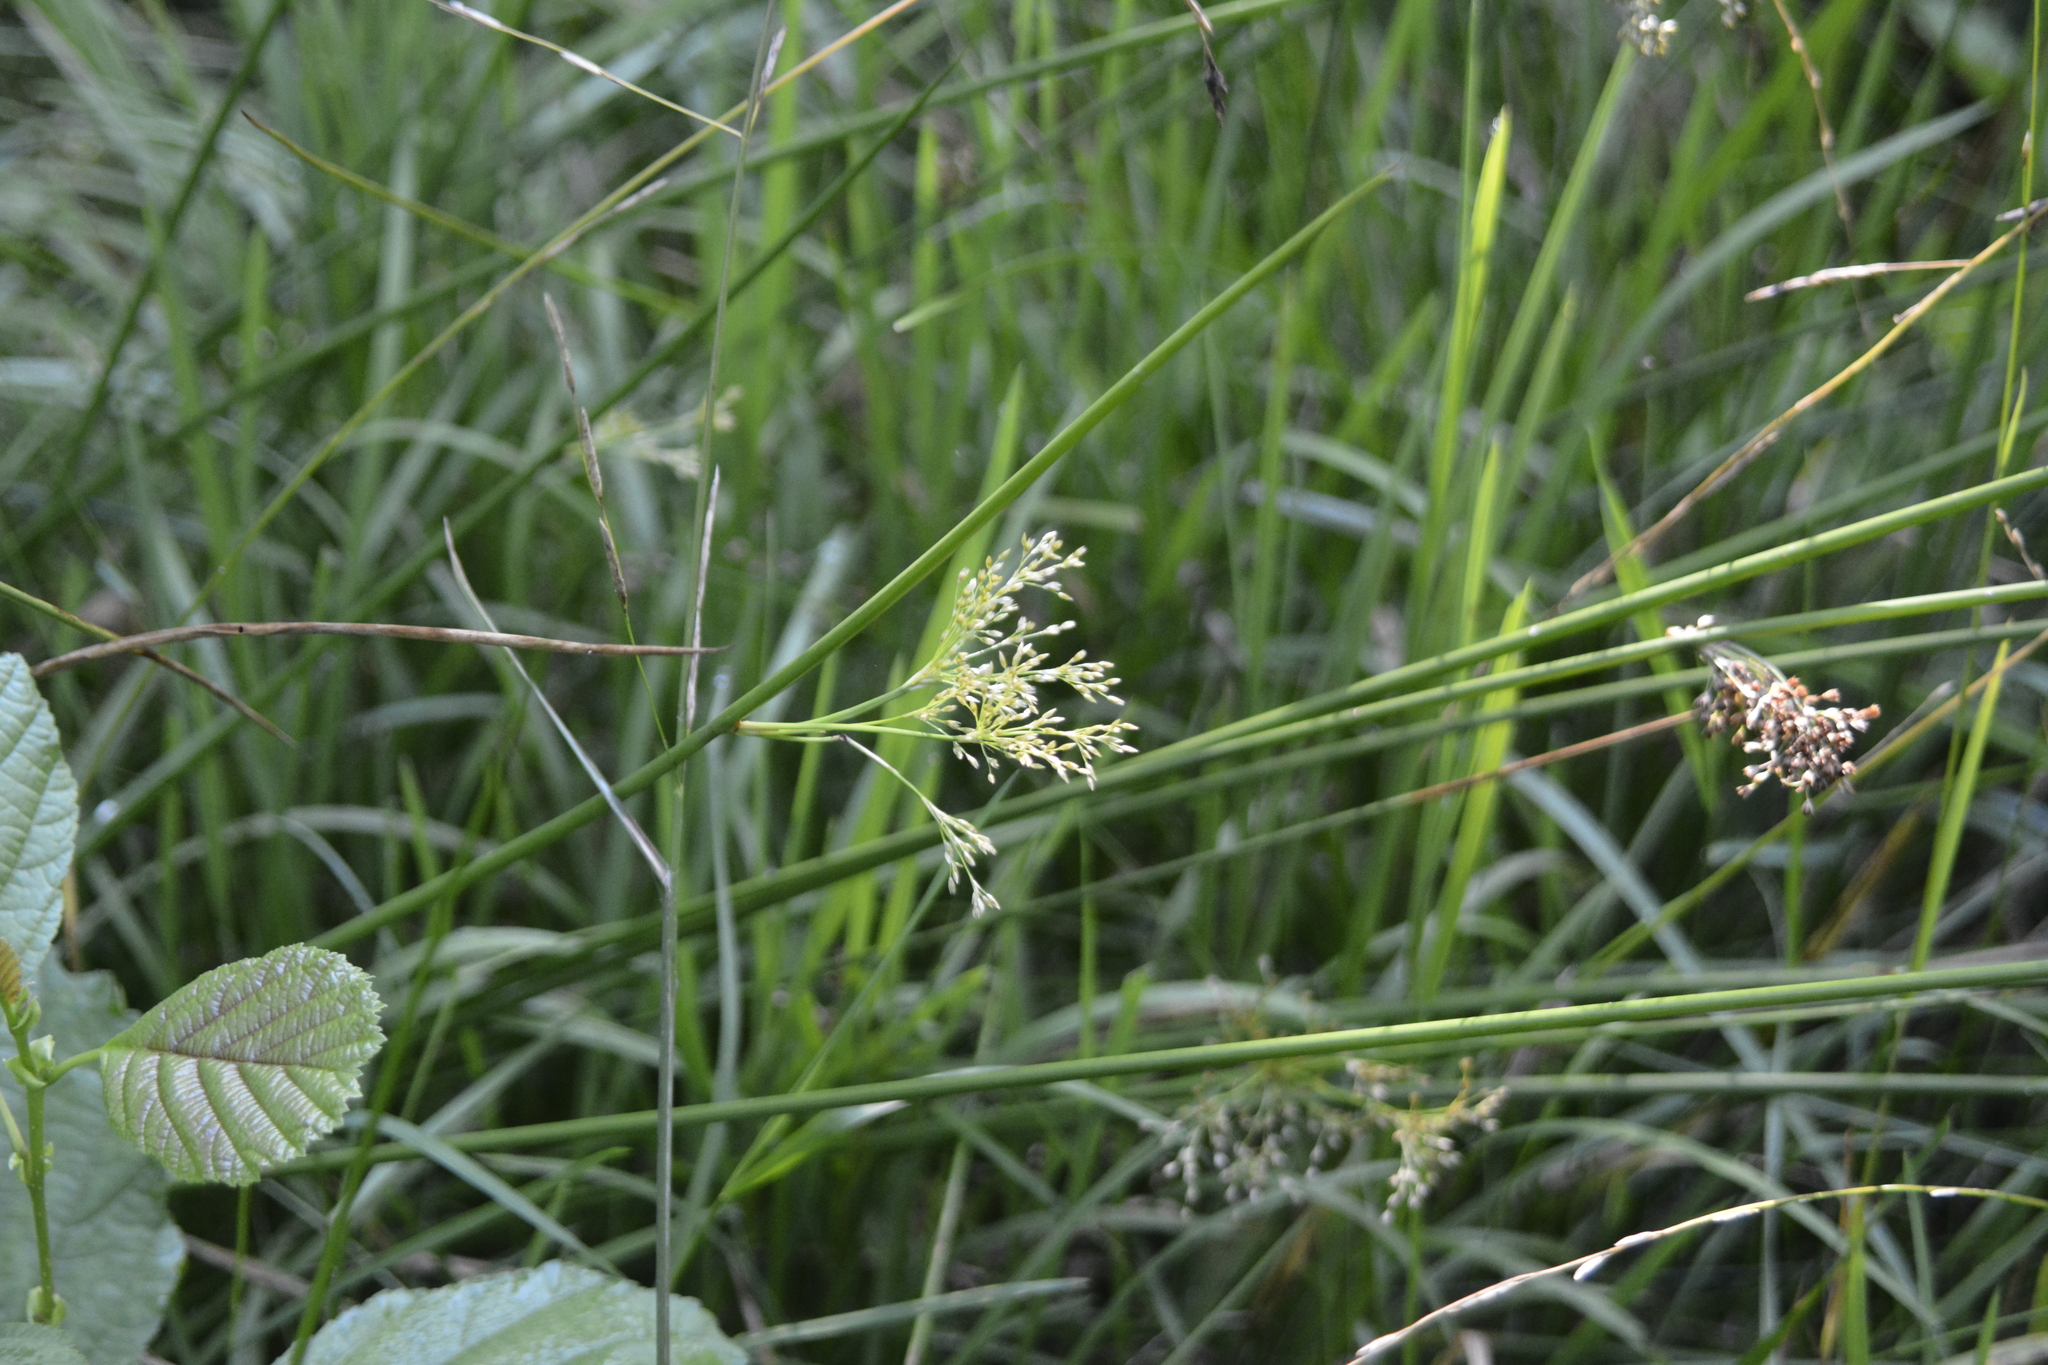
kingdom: Plantae
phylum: Tracheophyta
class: Liliopsida
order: Poales
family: Juncaceae
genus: Juncus
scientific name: Juncus effusus
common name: Soft rush
